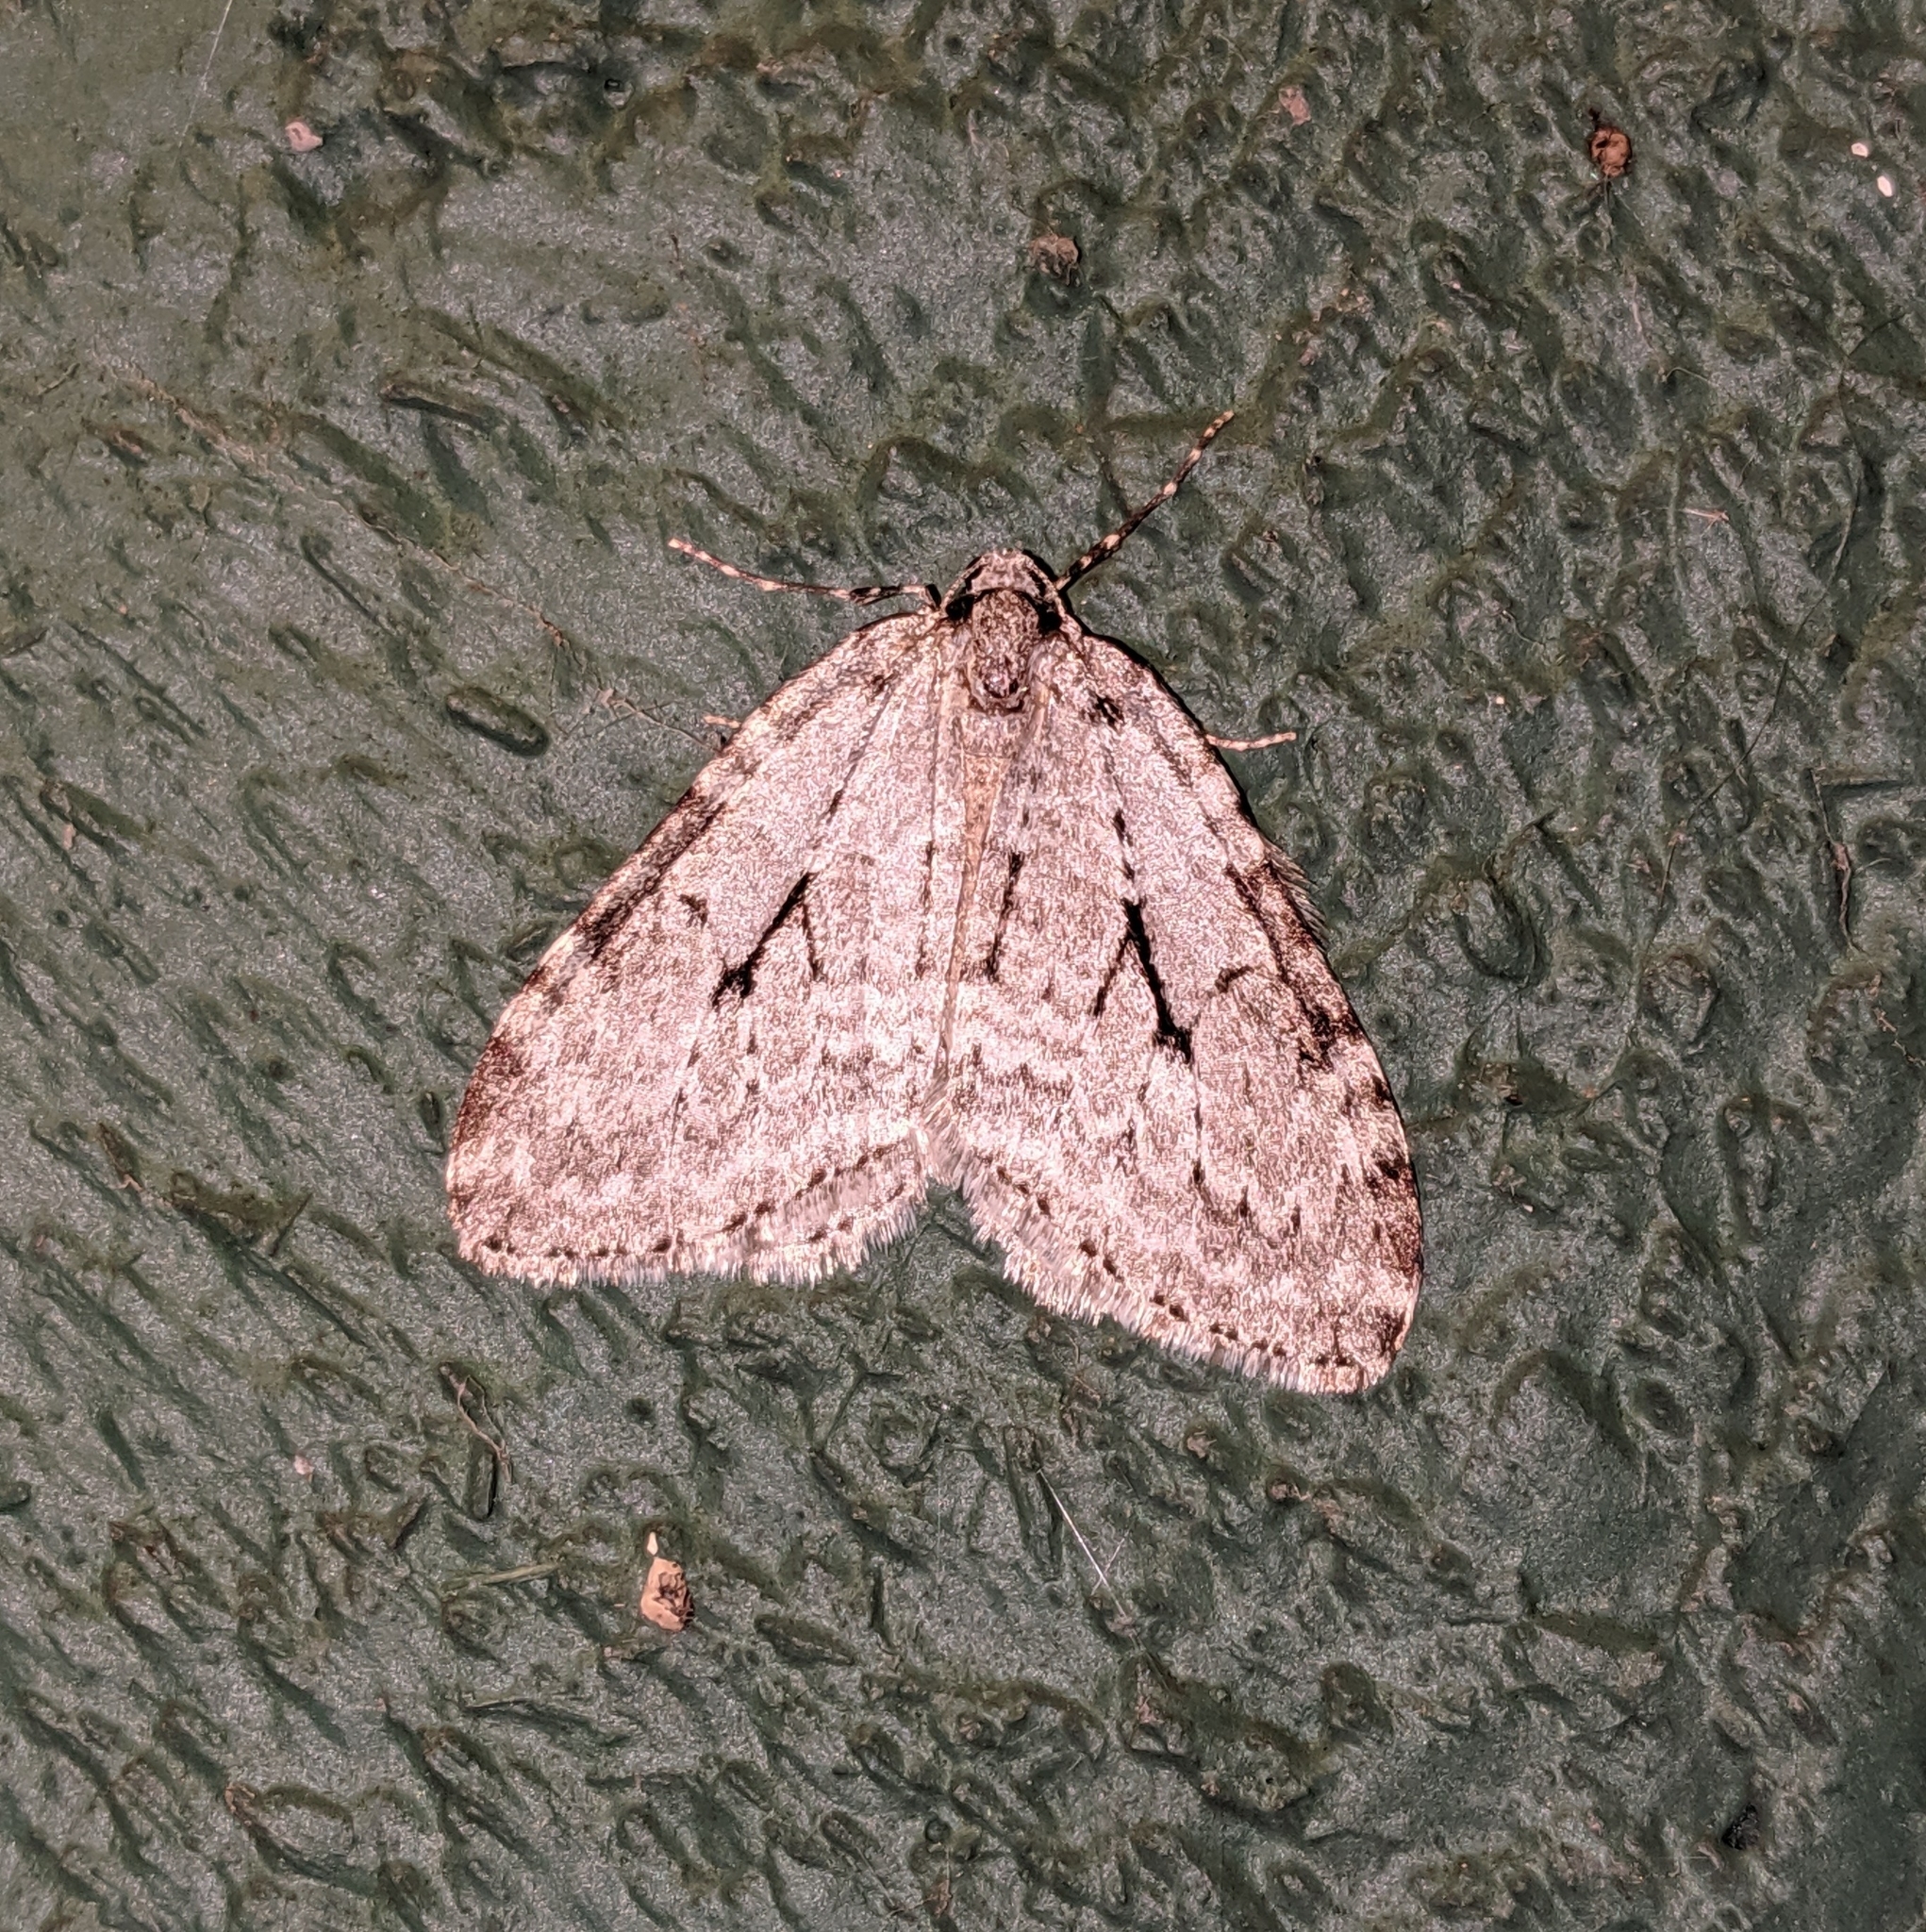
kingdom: Animalia
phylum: Arthropoda
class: Insecta
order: Lepidoptera
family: Geometridae
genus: Epirrita
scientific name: Epirrita autumnata
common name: Autumnal moth
